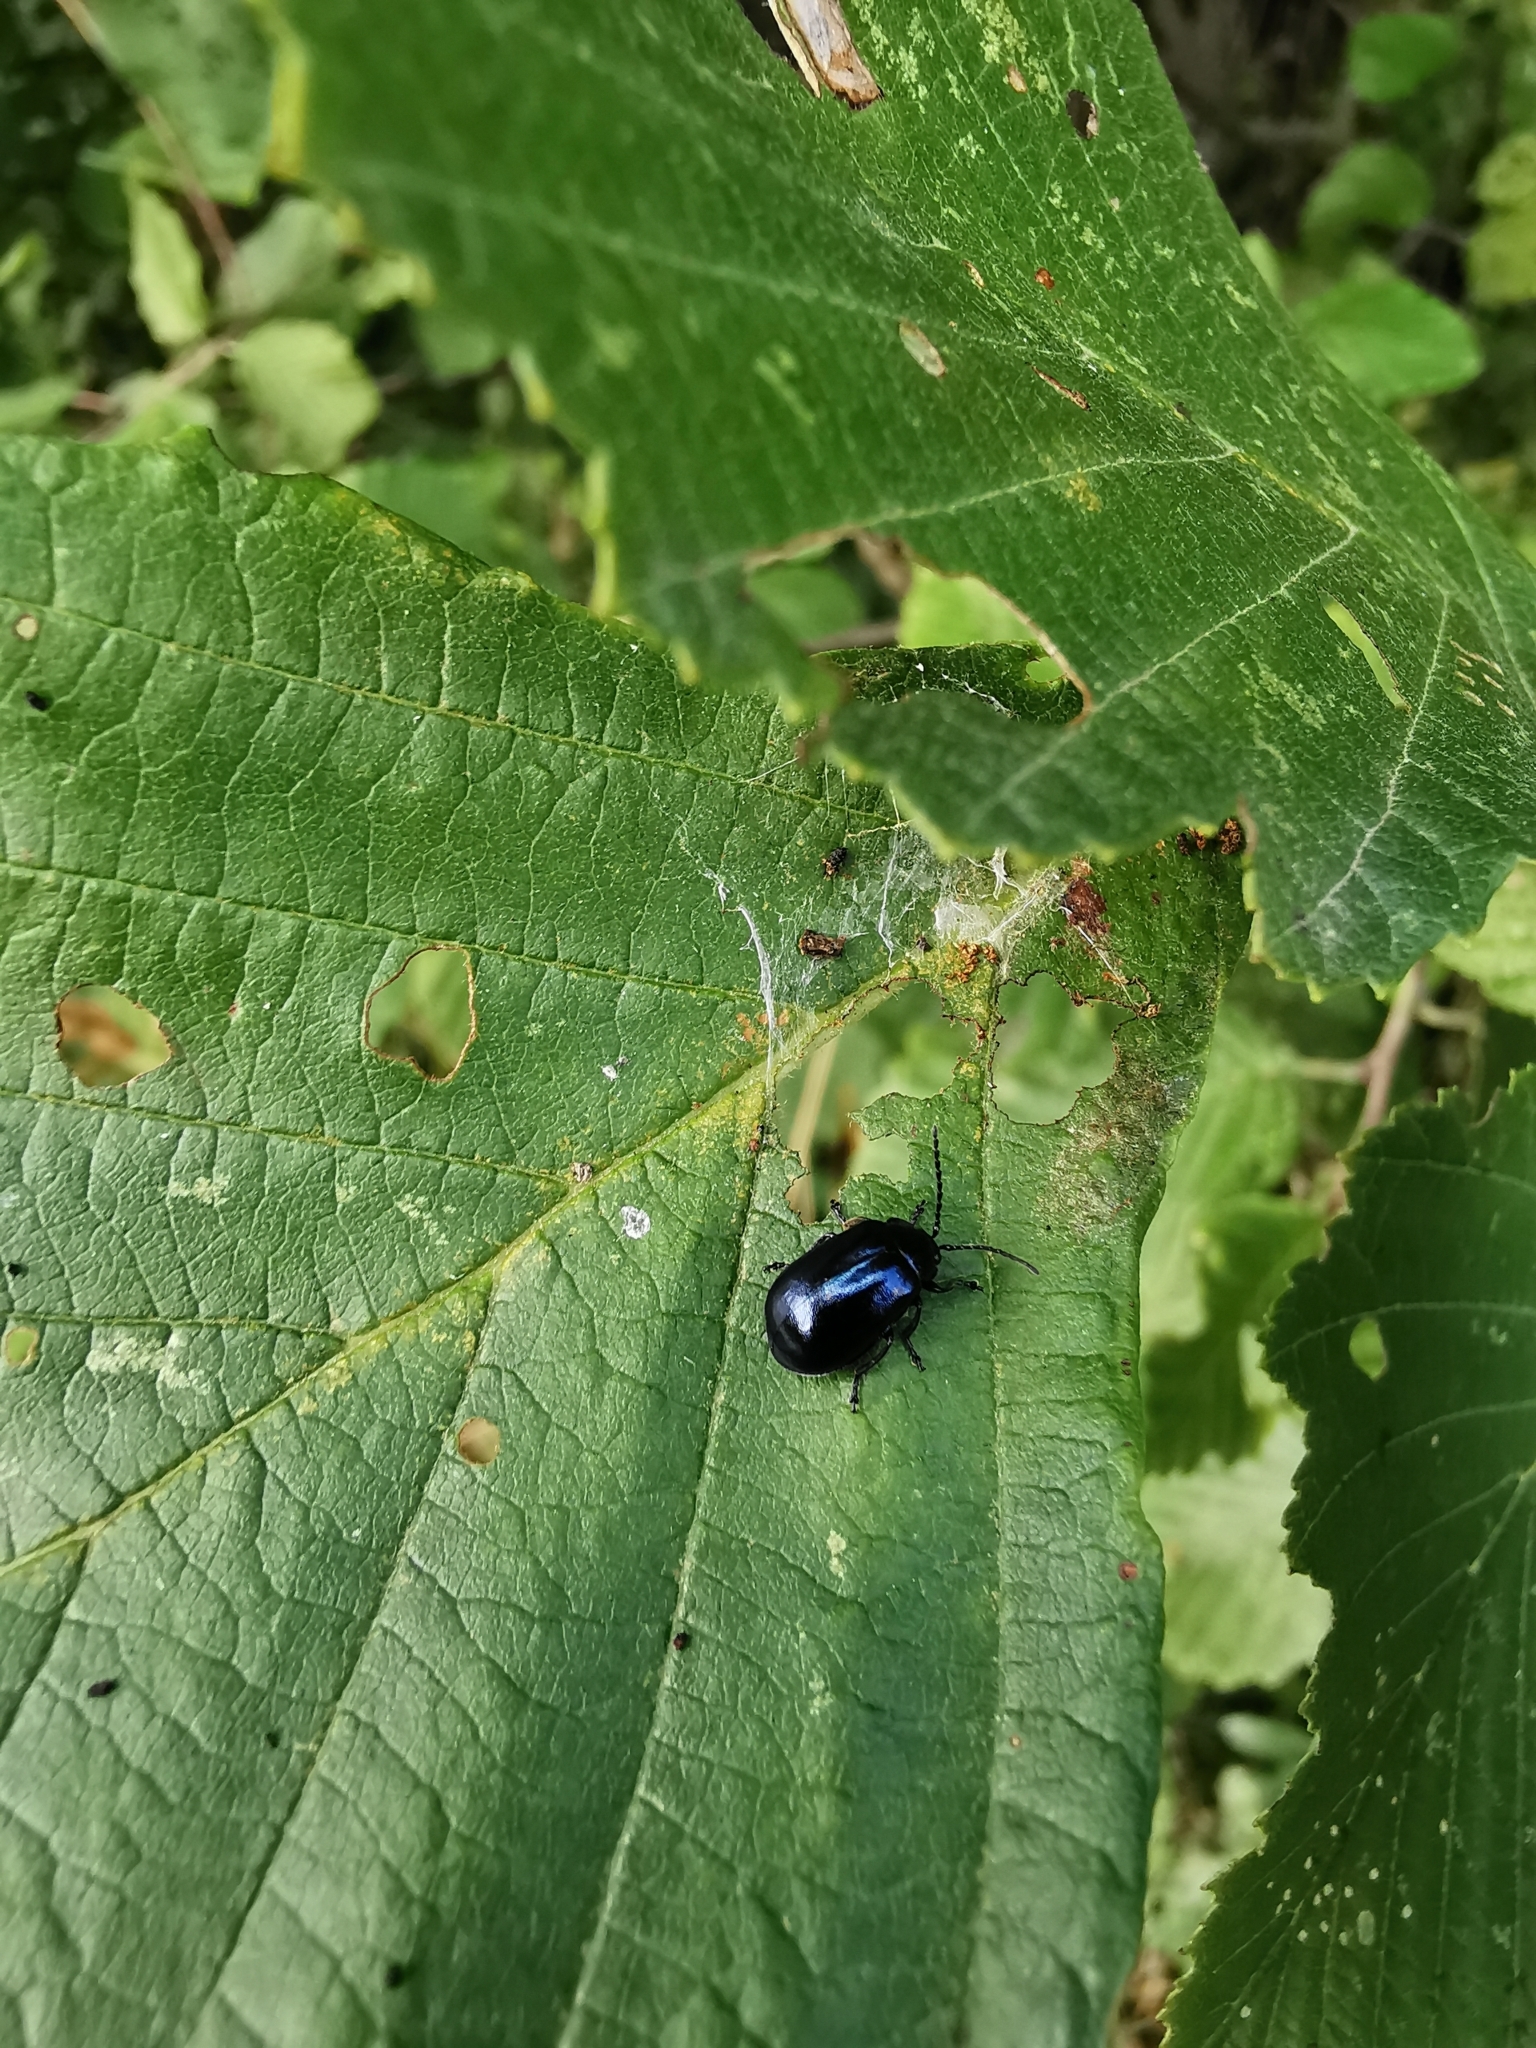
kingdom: Animalia
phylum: Arthropoda
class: Insecta
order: Coleoptera
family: Chrysomelidae
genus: Agelastica
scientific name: Agelastica alni
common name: Alder leaf beetle
